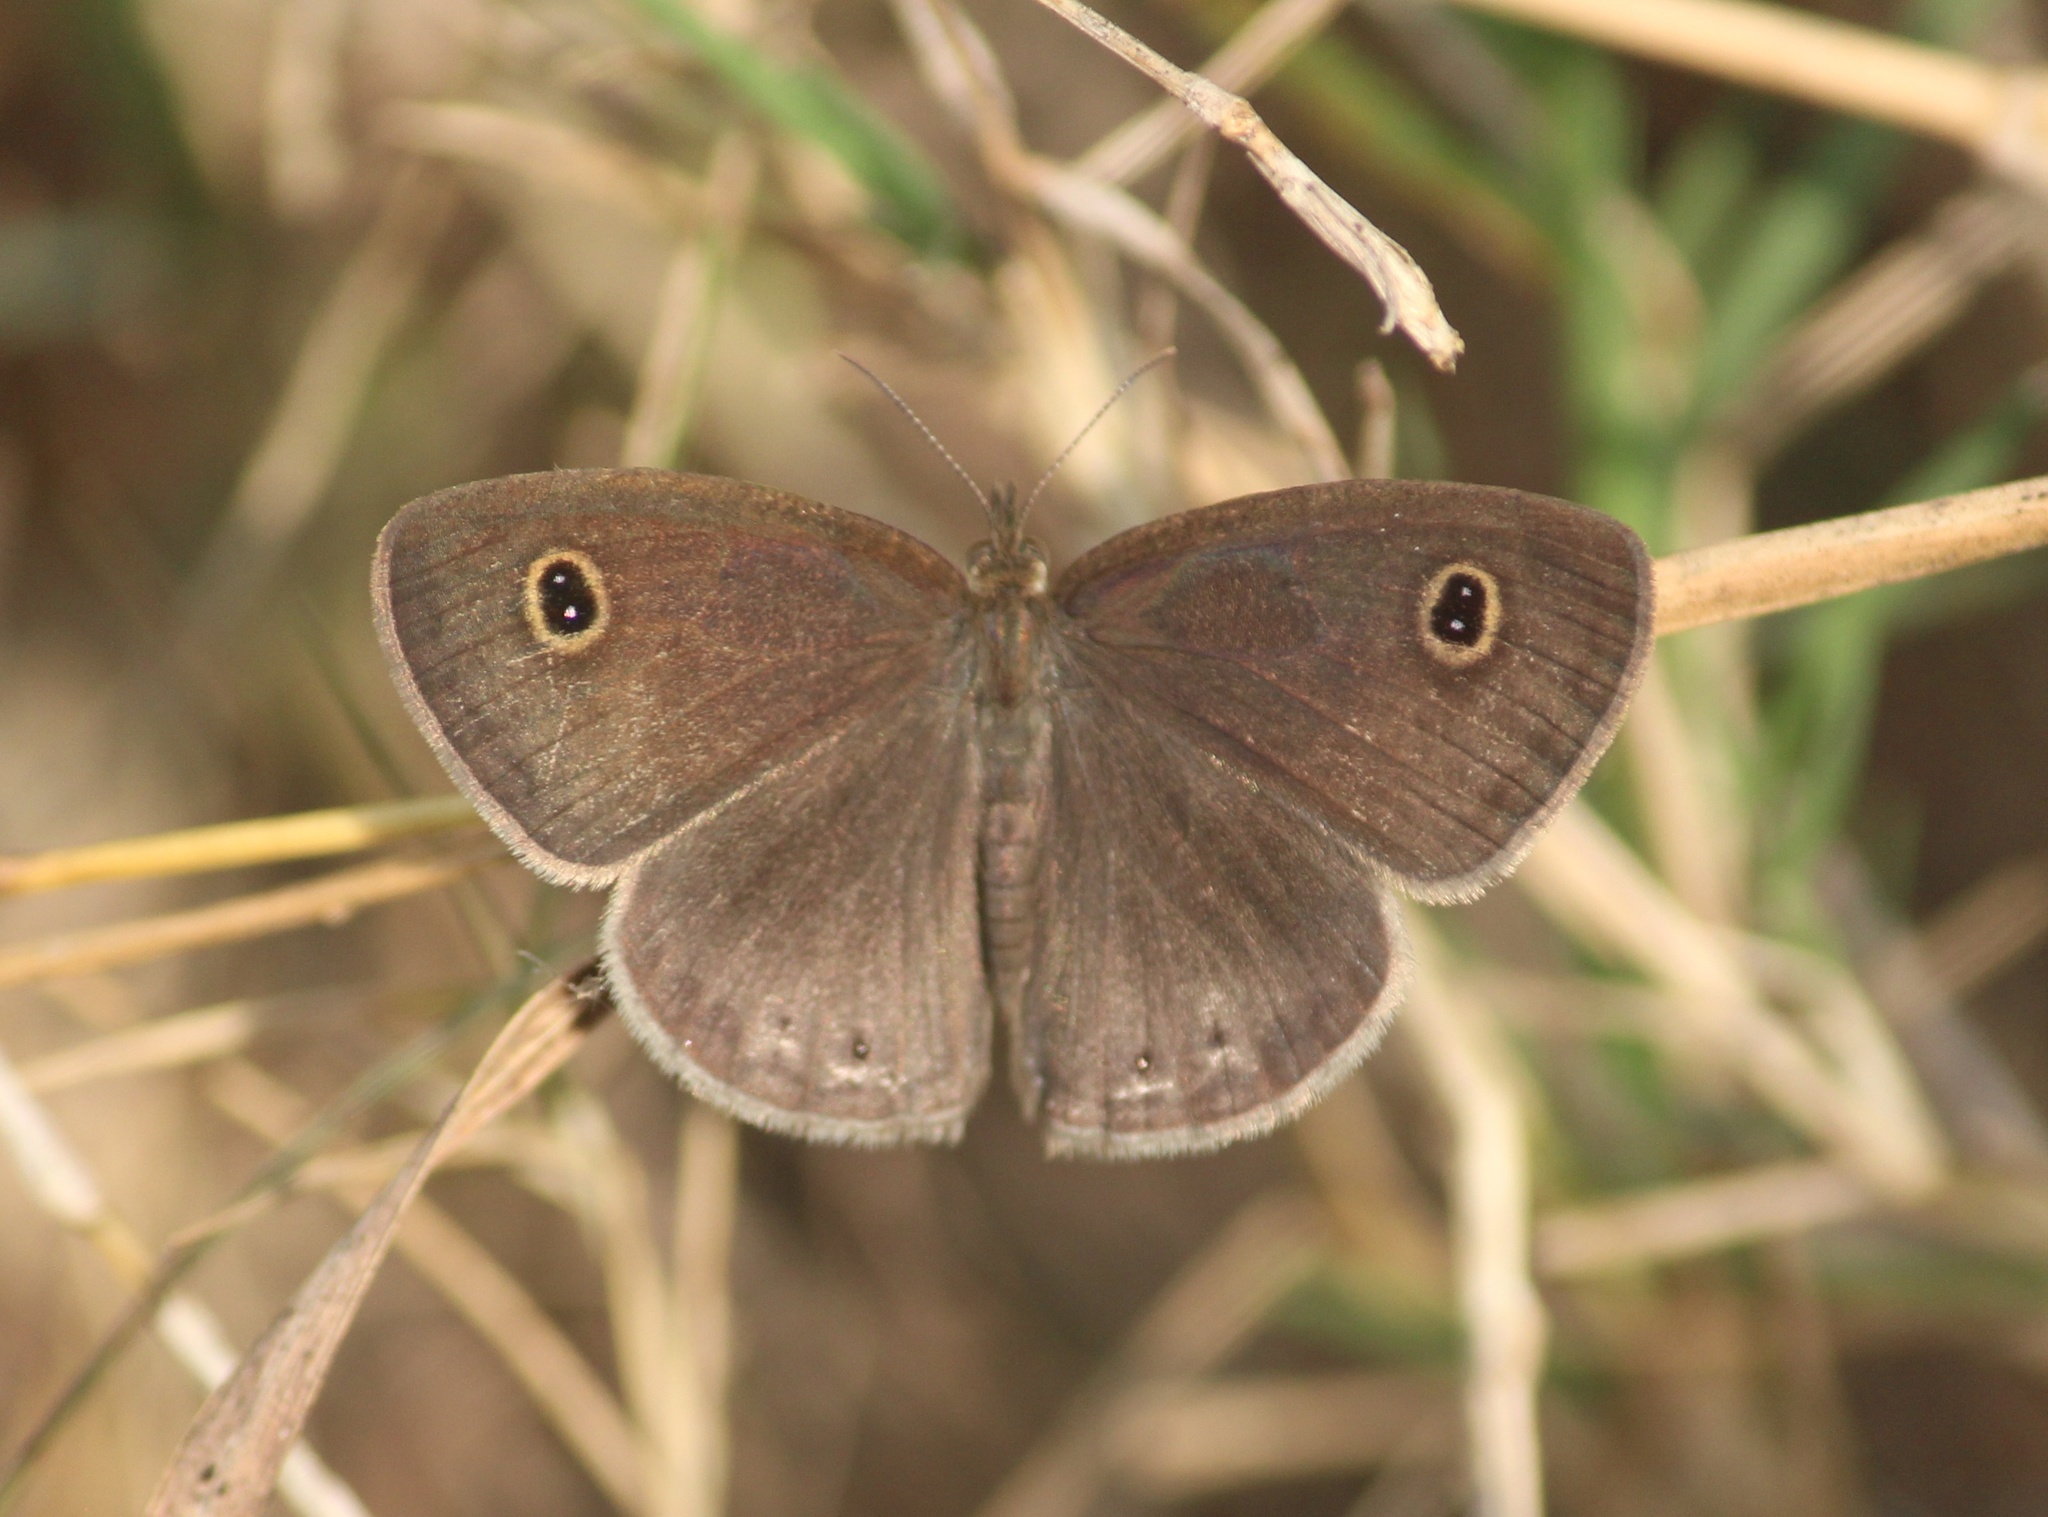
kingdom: Animalia
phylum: Arthropoda
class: Insecta
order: Lepidoptera
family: Nymphalidae
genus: Ypthima
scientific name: Ypthima huebneri
